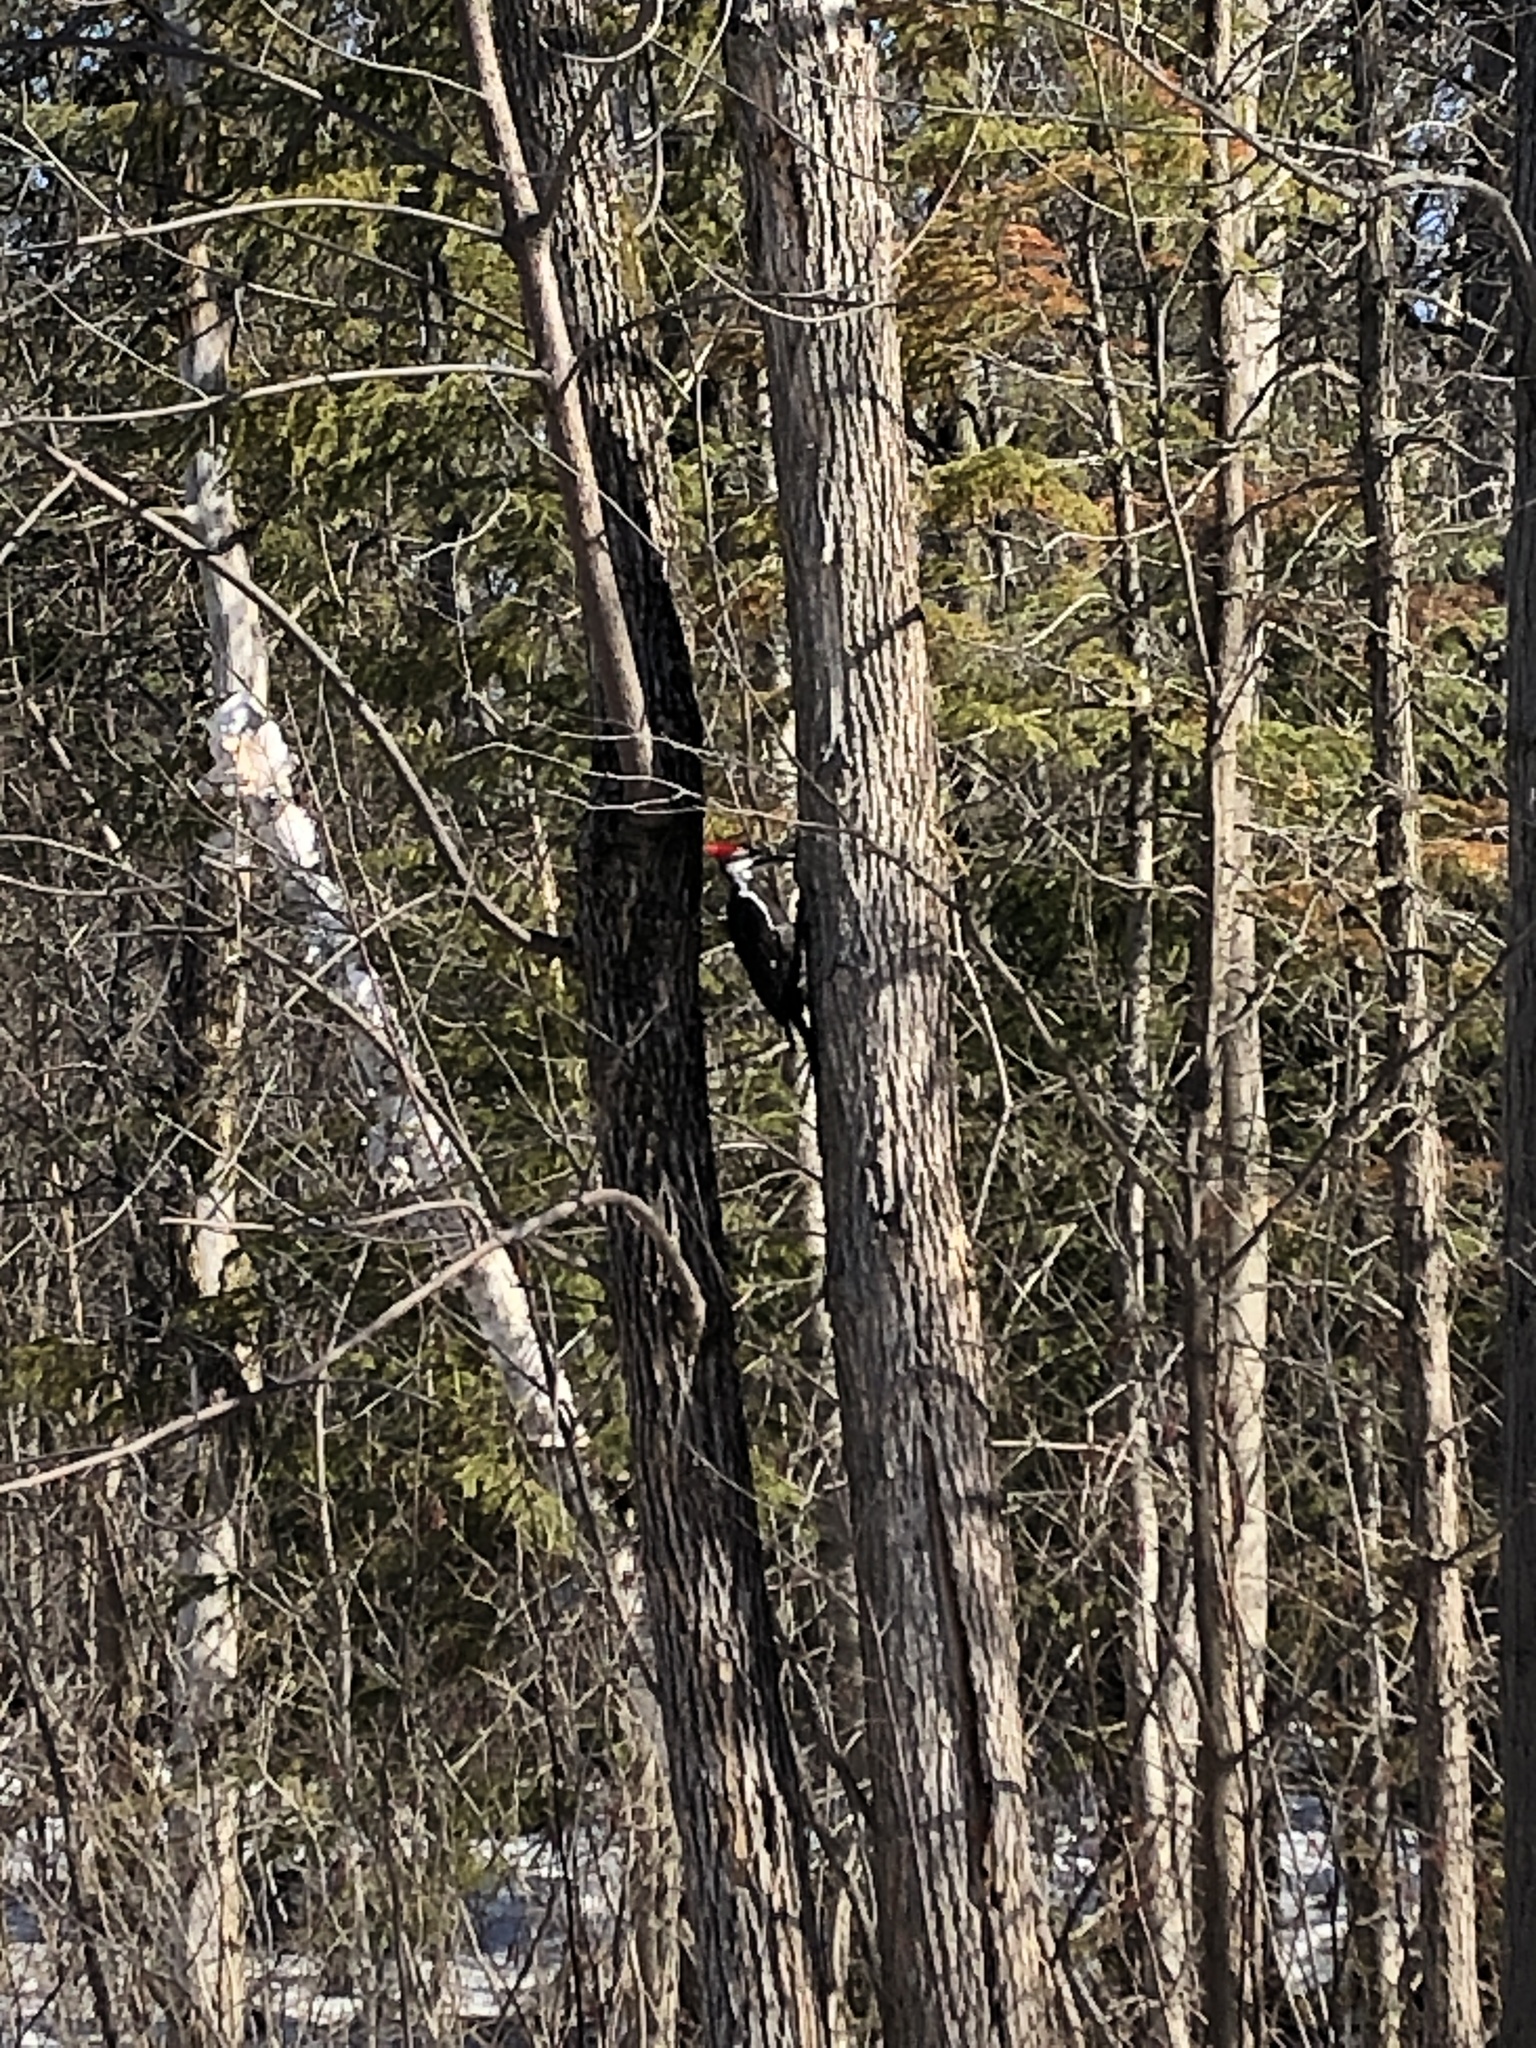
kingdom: Animalia
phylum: Chordata
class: Aves
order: Piciformes
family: Picidae
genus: Dryocopus
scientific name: Dryocopus pileatus
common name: Pileated woodpecker
